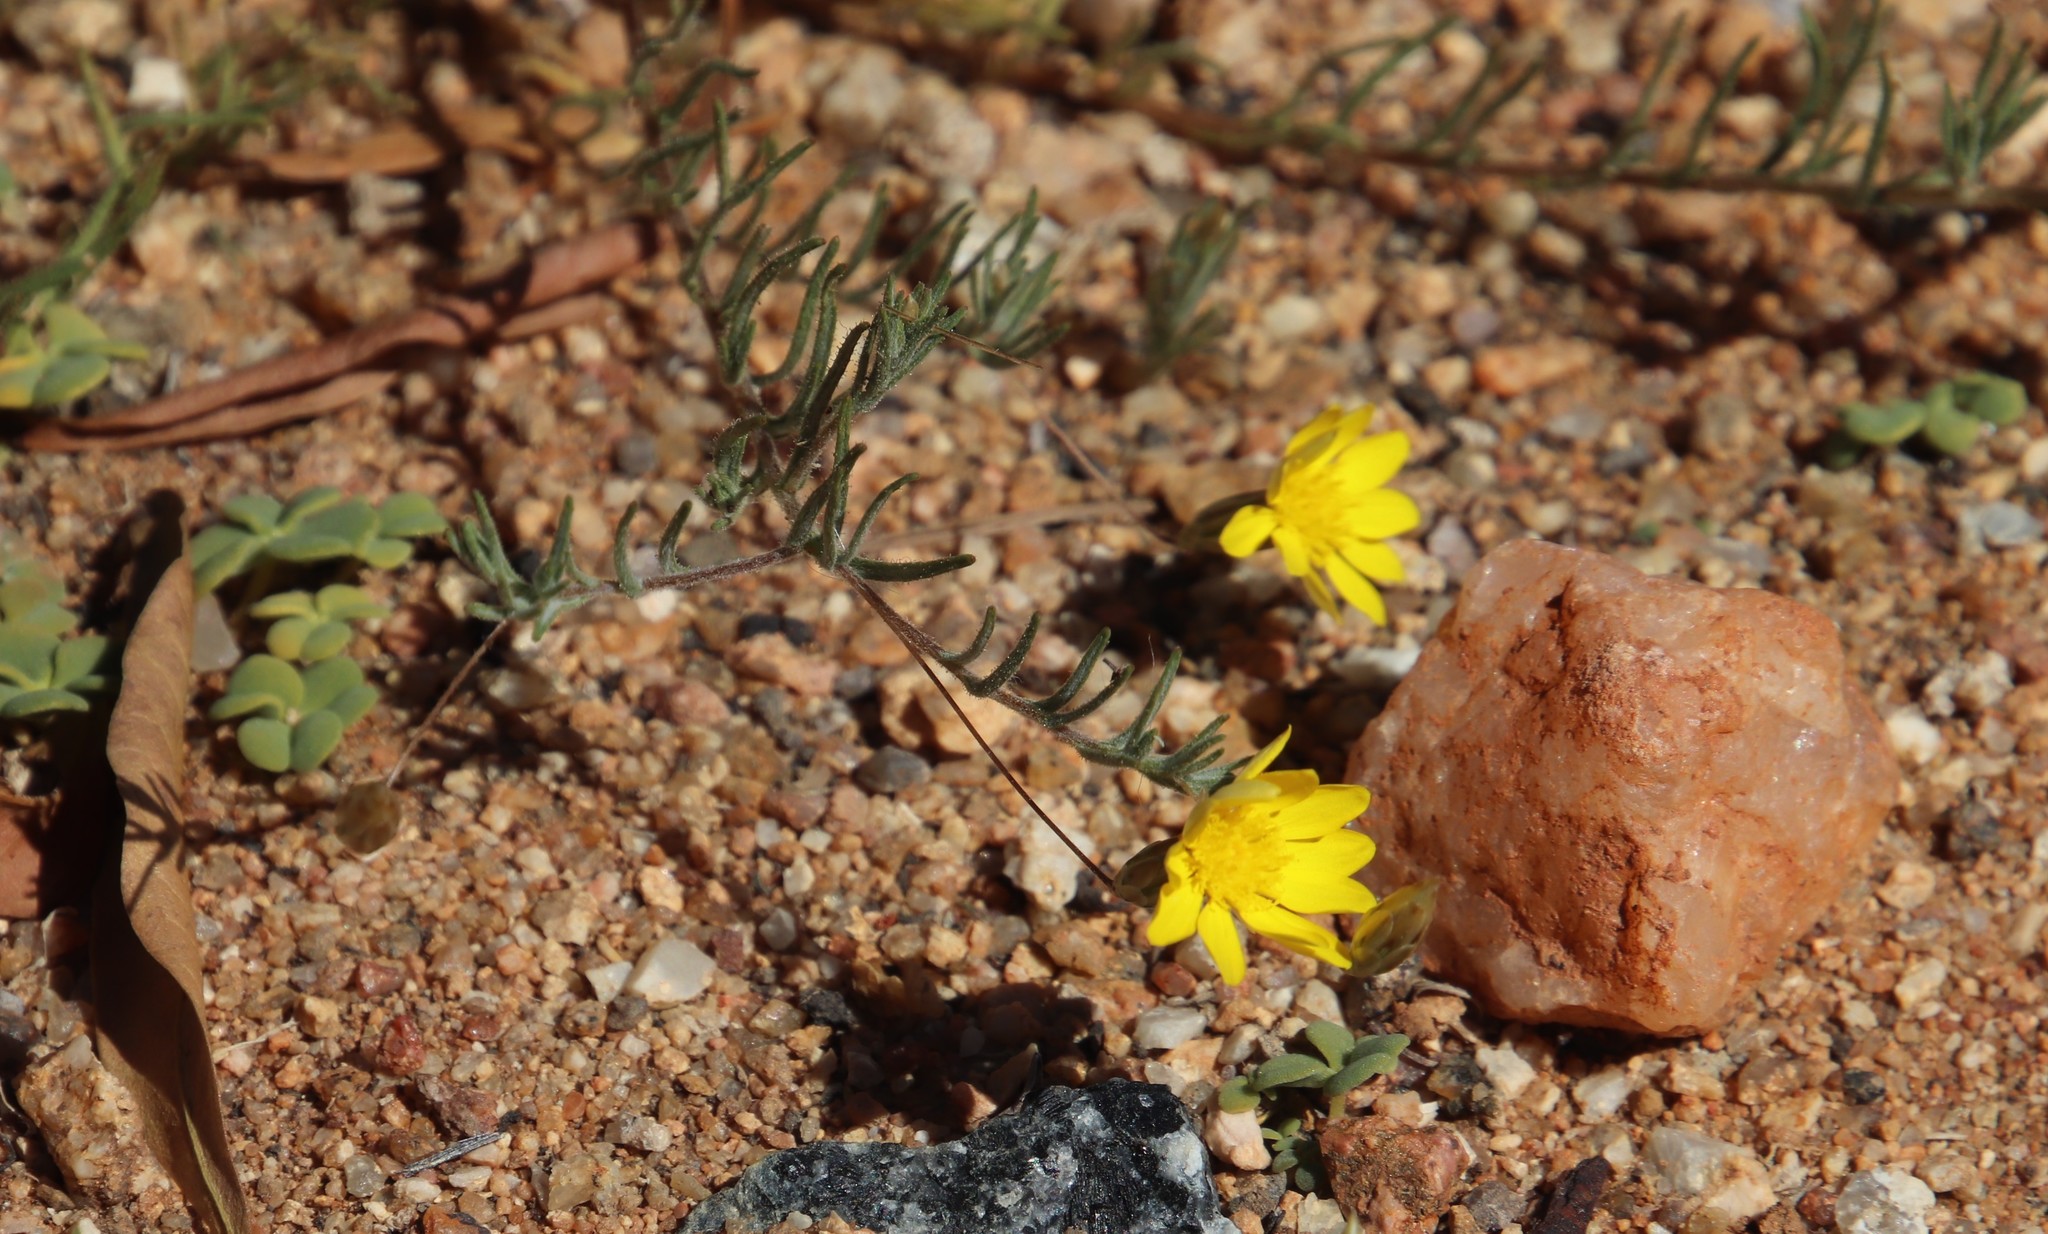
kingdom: Plantae
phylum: Tracheophyta
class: Magnoliopsida
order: Asterales
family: Asteraceae
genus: Leysera
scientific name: Leysera tenella
